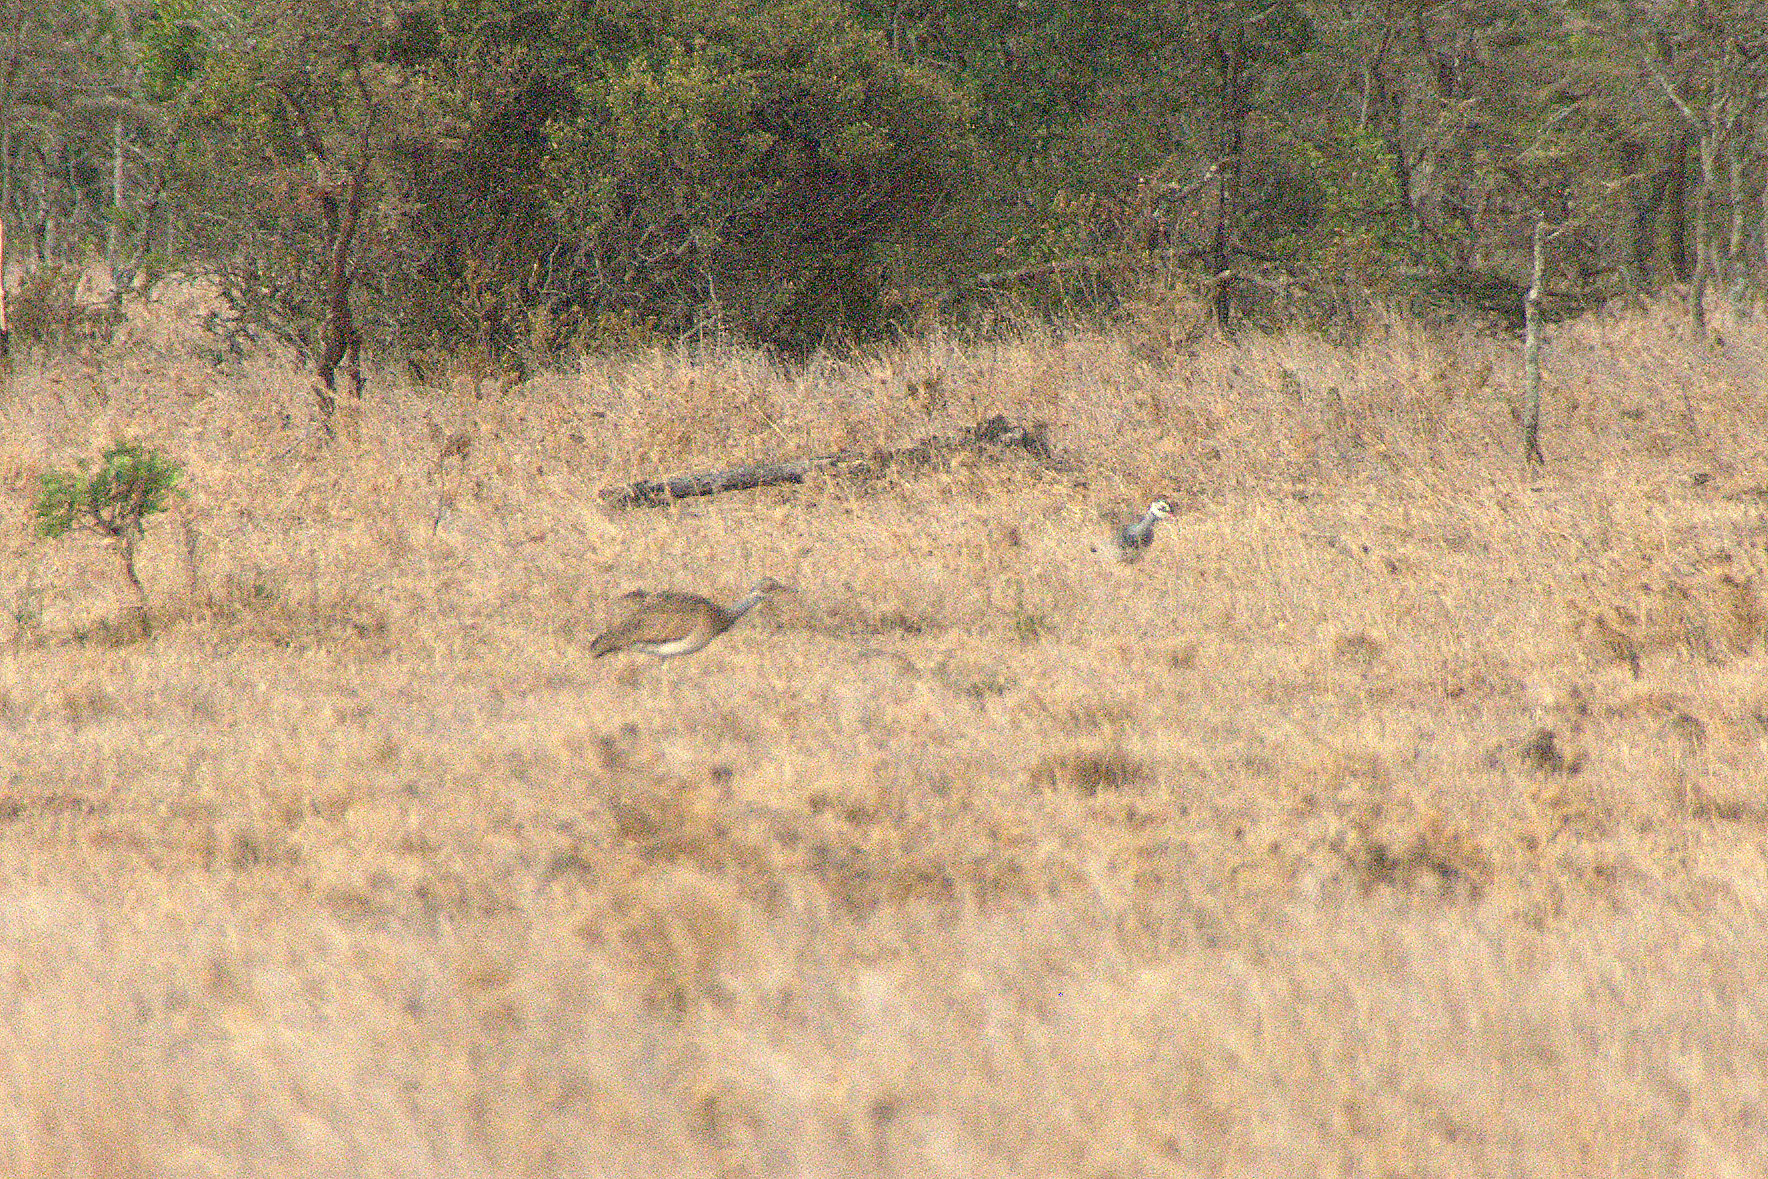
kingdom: Animalia
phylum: Chordata
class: Aves
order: Otidiformes
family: Otididae
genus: Eupodotis
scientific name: Eupodotis senegalensis
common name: White-bellied bustard
